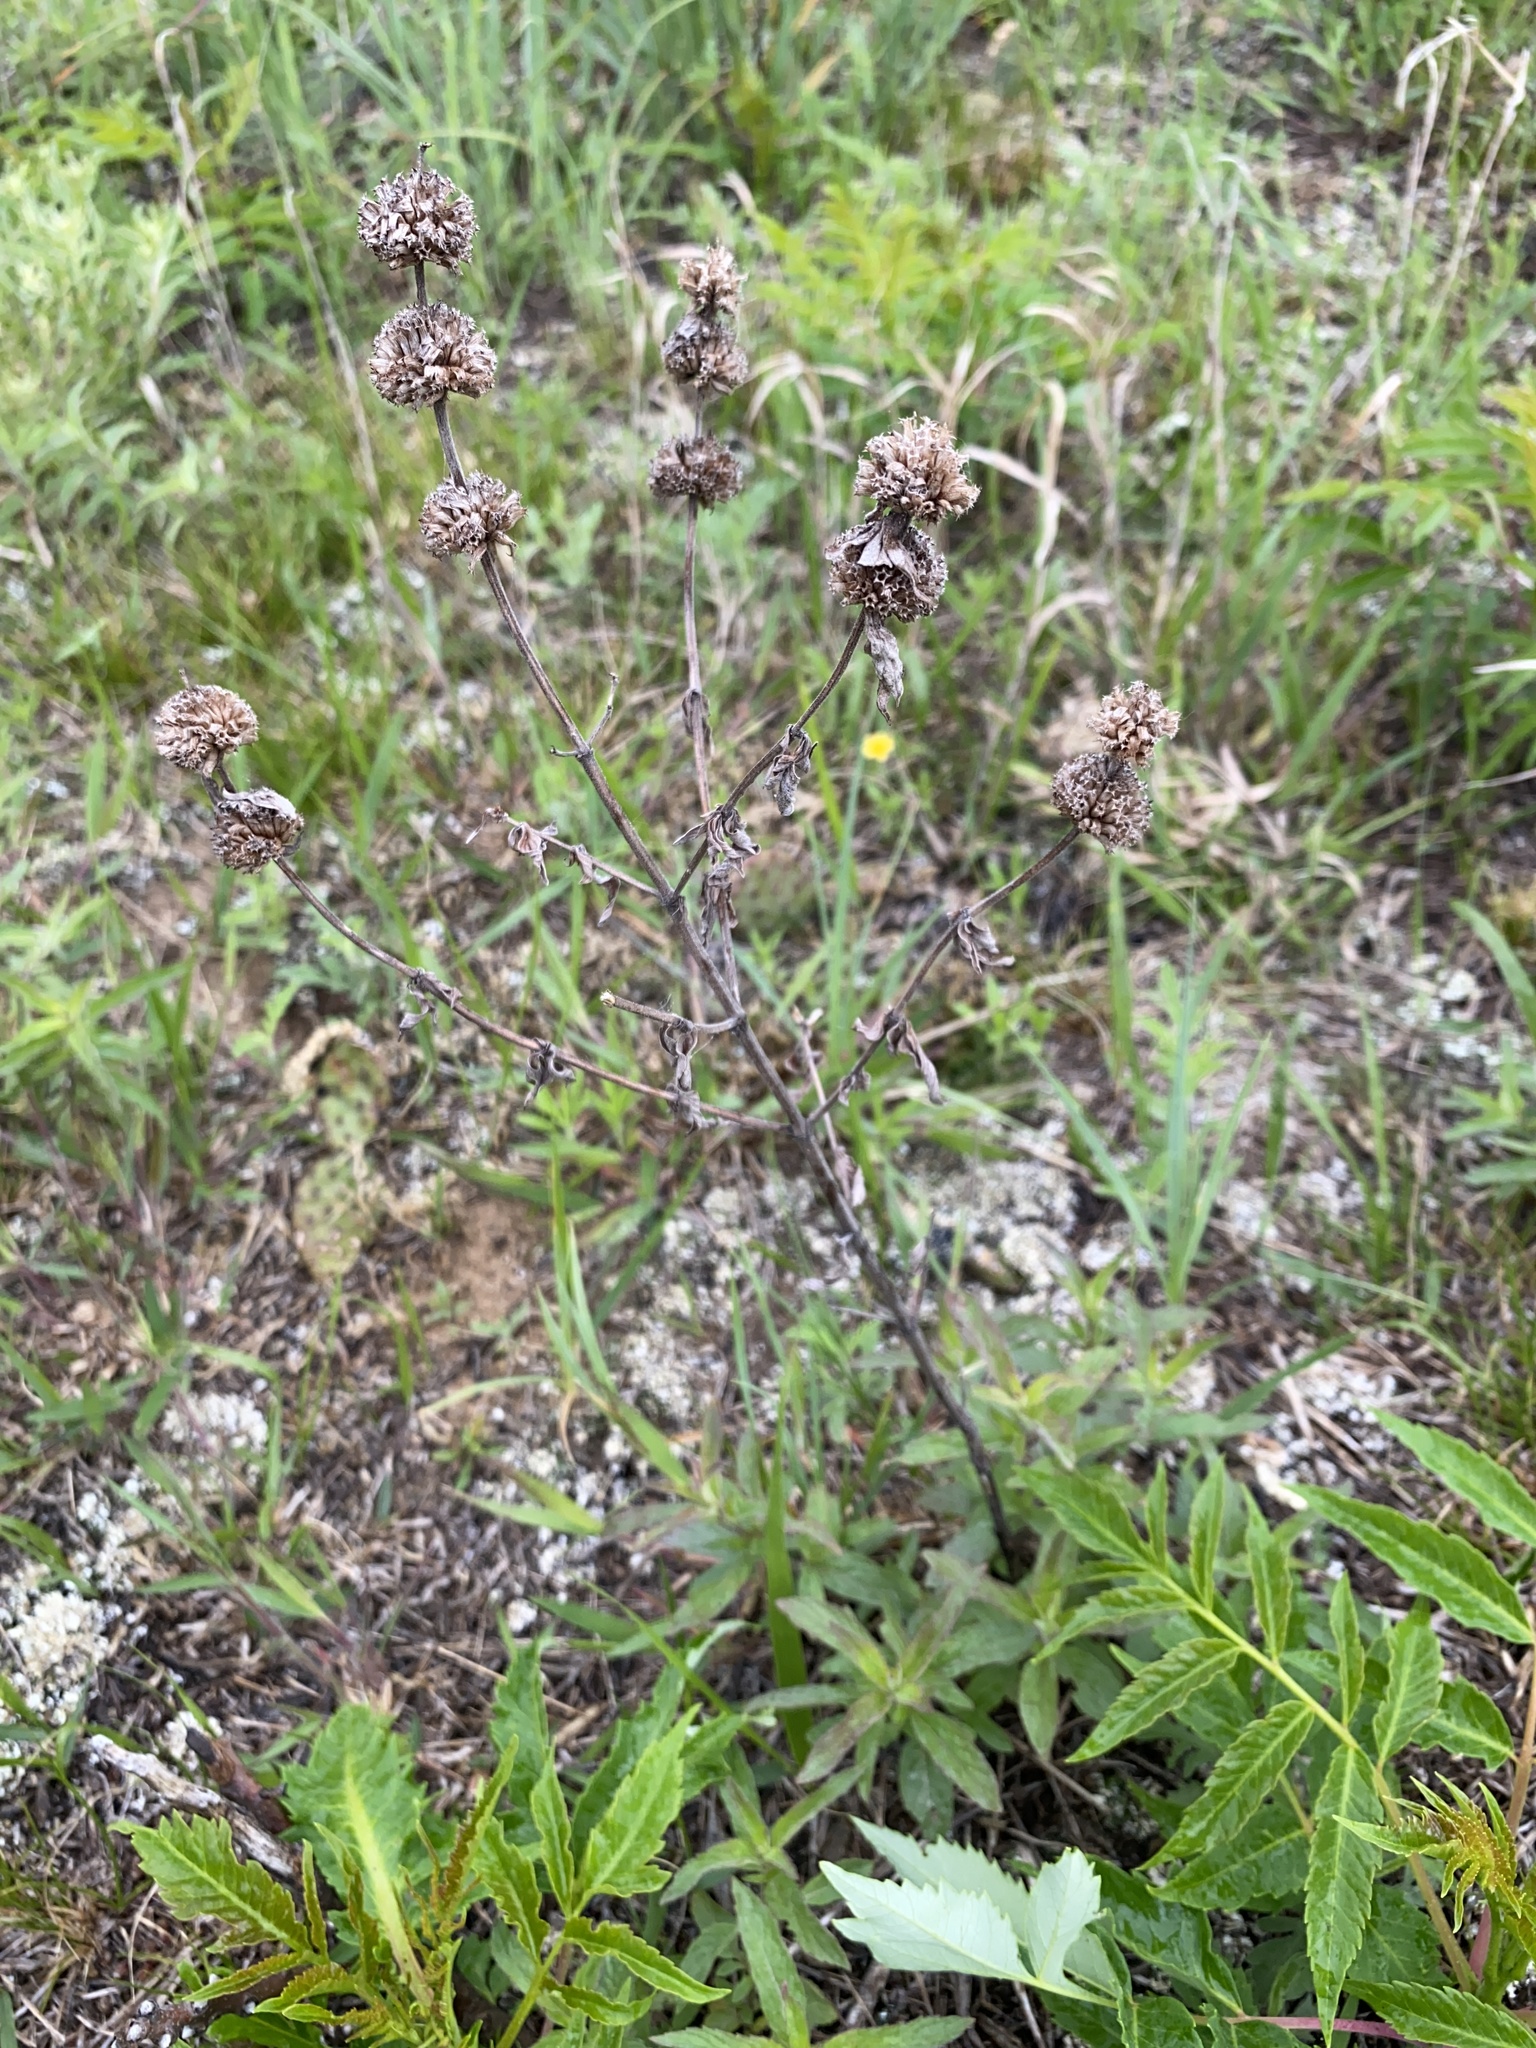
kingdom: Plantae
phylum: Tracheophyta
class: Magnoliopsida
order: Lamiales
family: Lamiaceae
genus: Monarda
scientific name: Monarda punctata
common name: Dotted monarda
